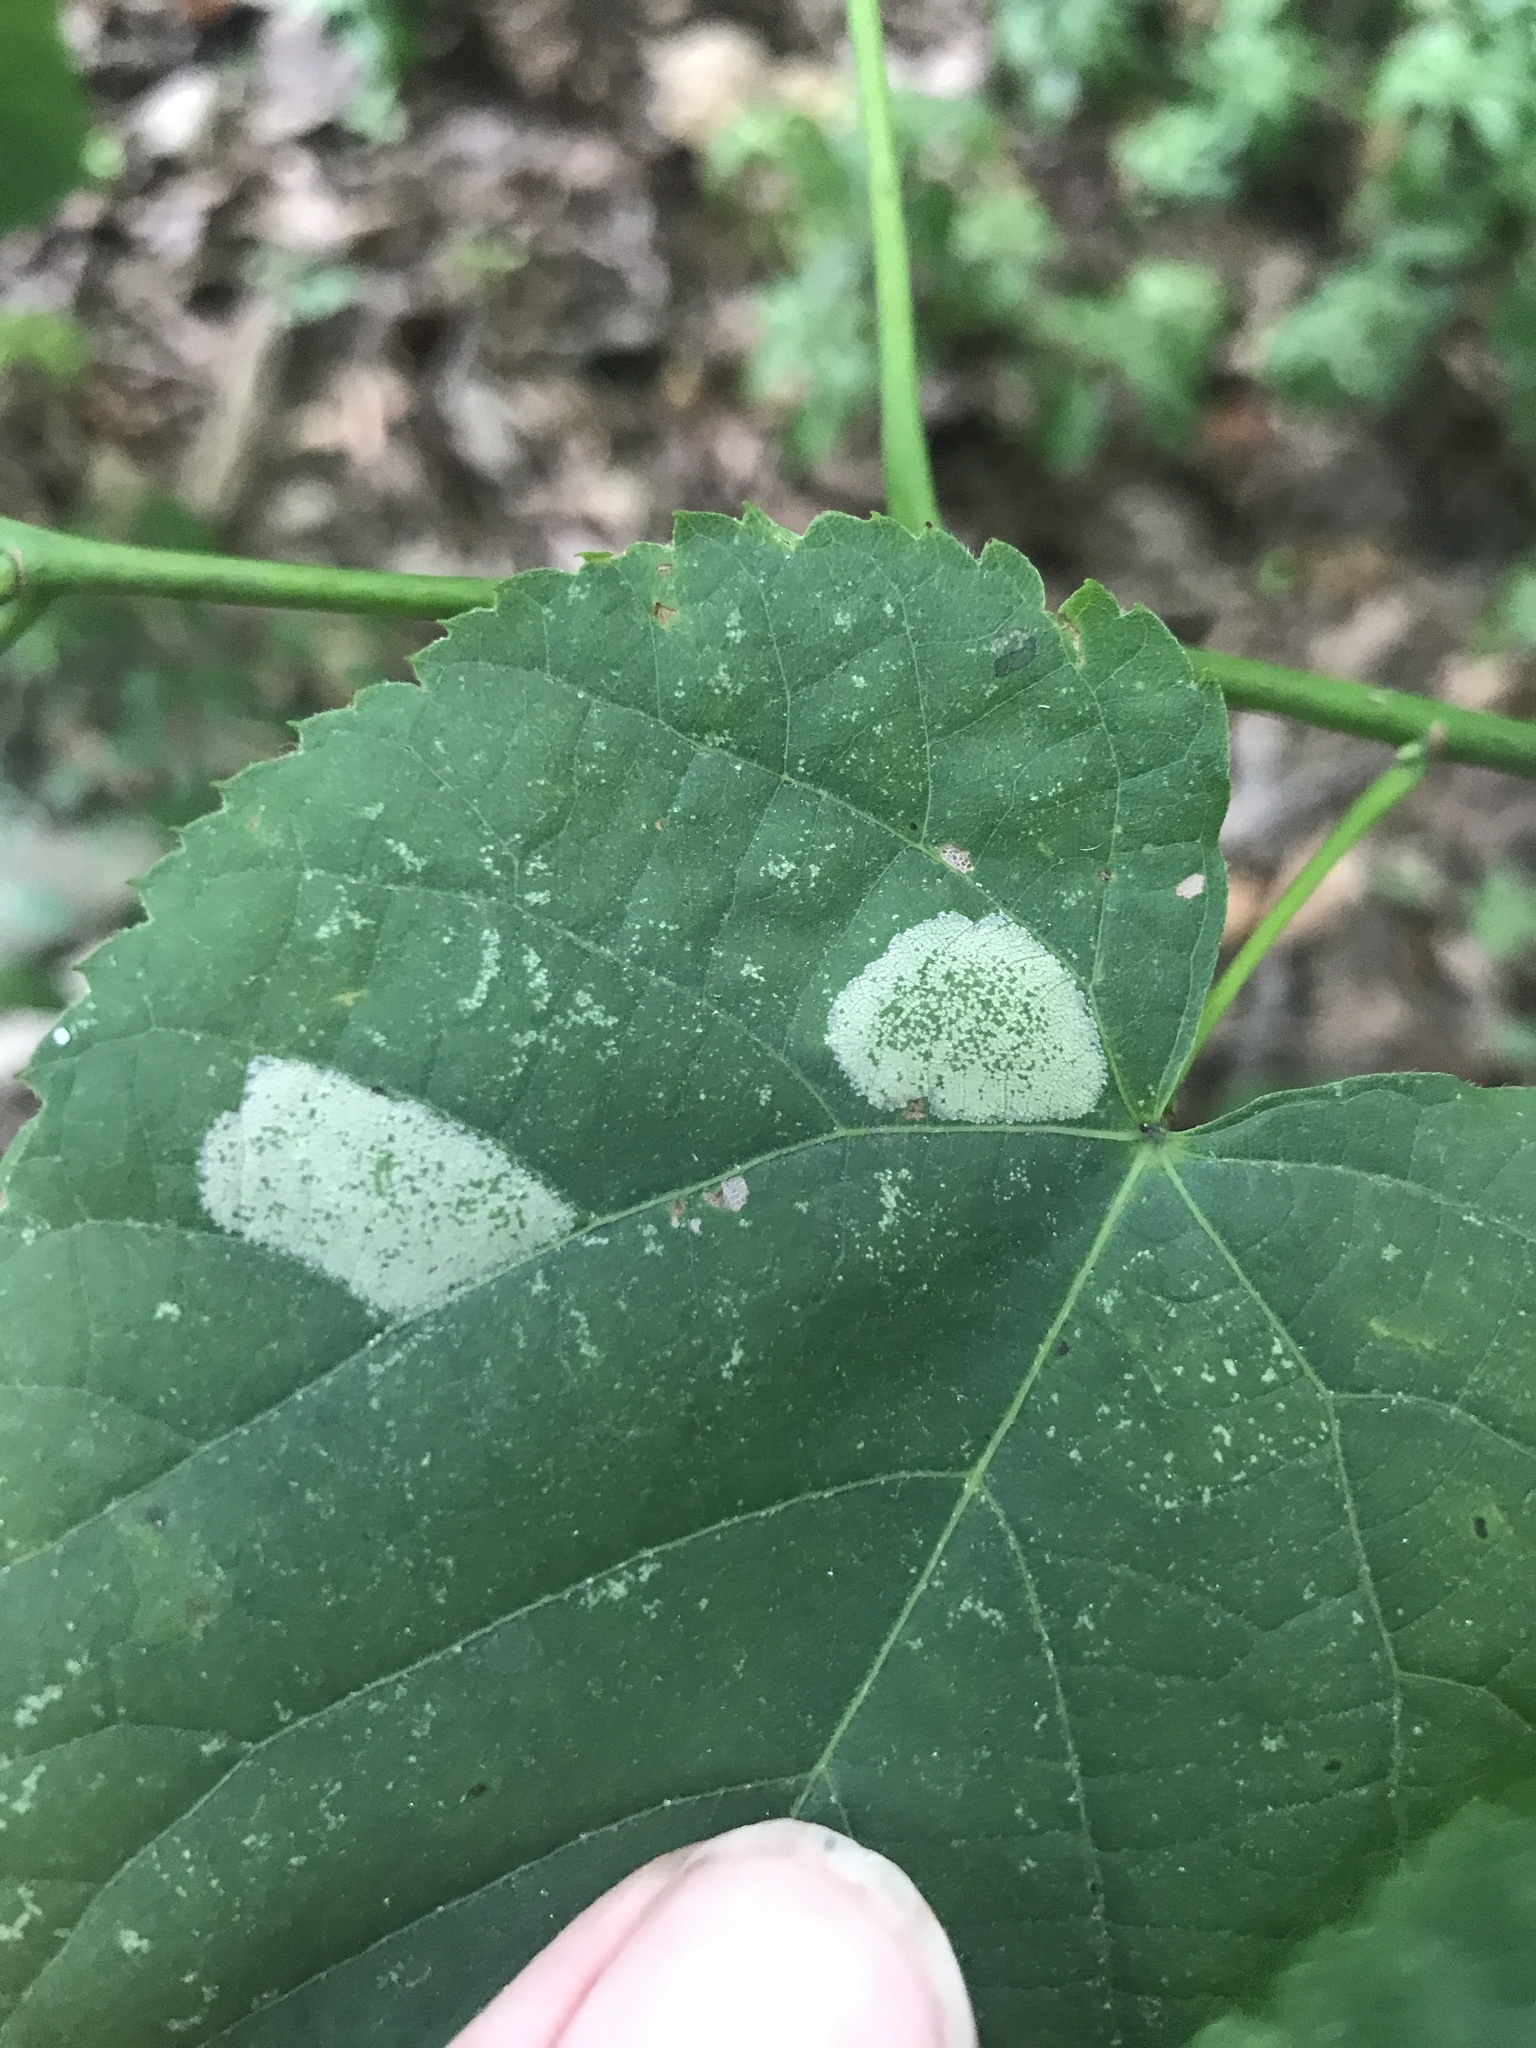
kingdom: Animalia
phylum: Arthropoda
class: Insecta
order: Lepidoptera
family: Gracillariidae
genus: Phyllonorycter
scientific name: Phyllonorycter lucetiella
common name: Basswood miner moth
